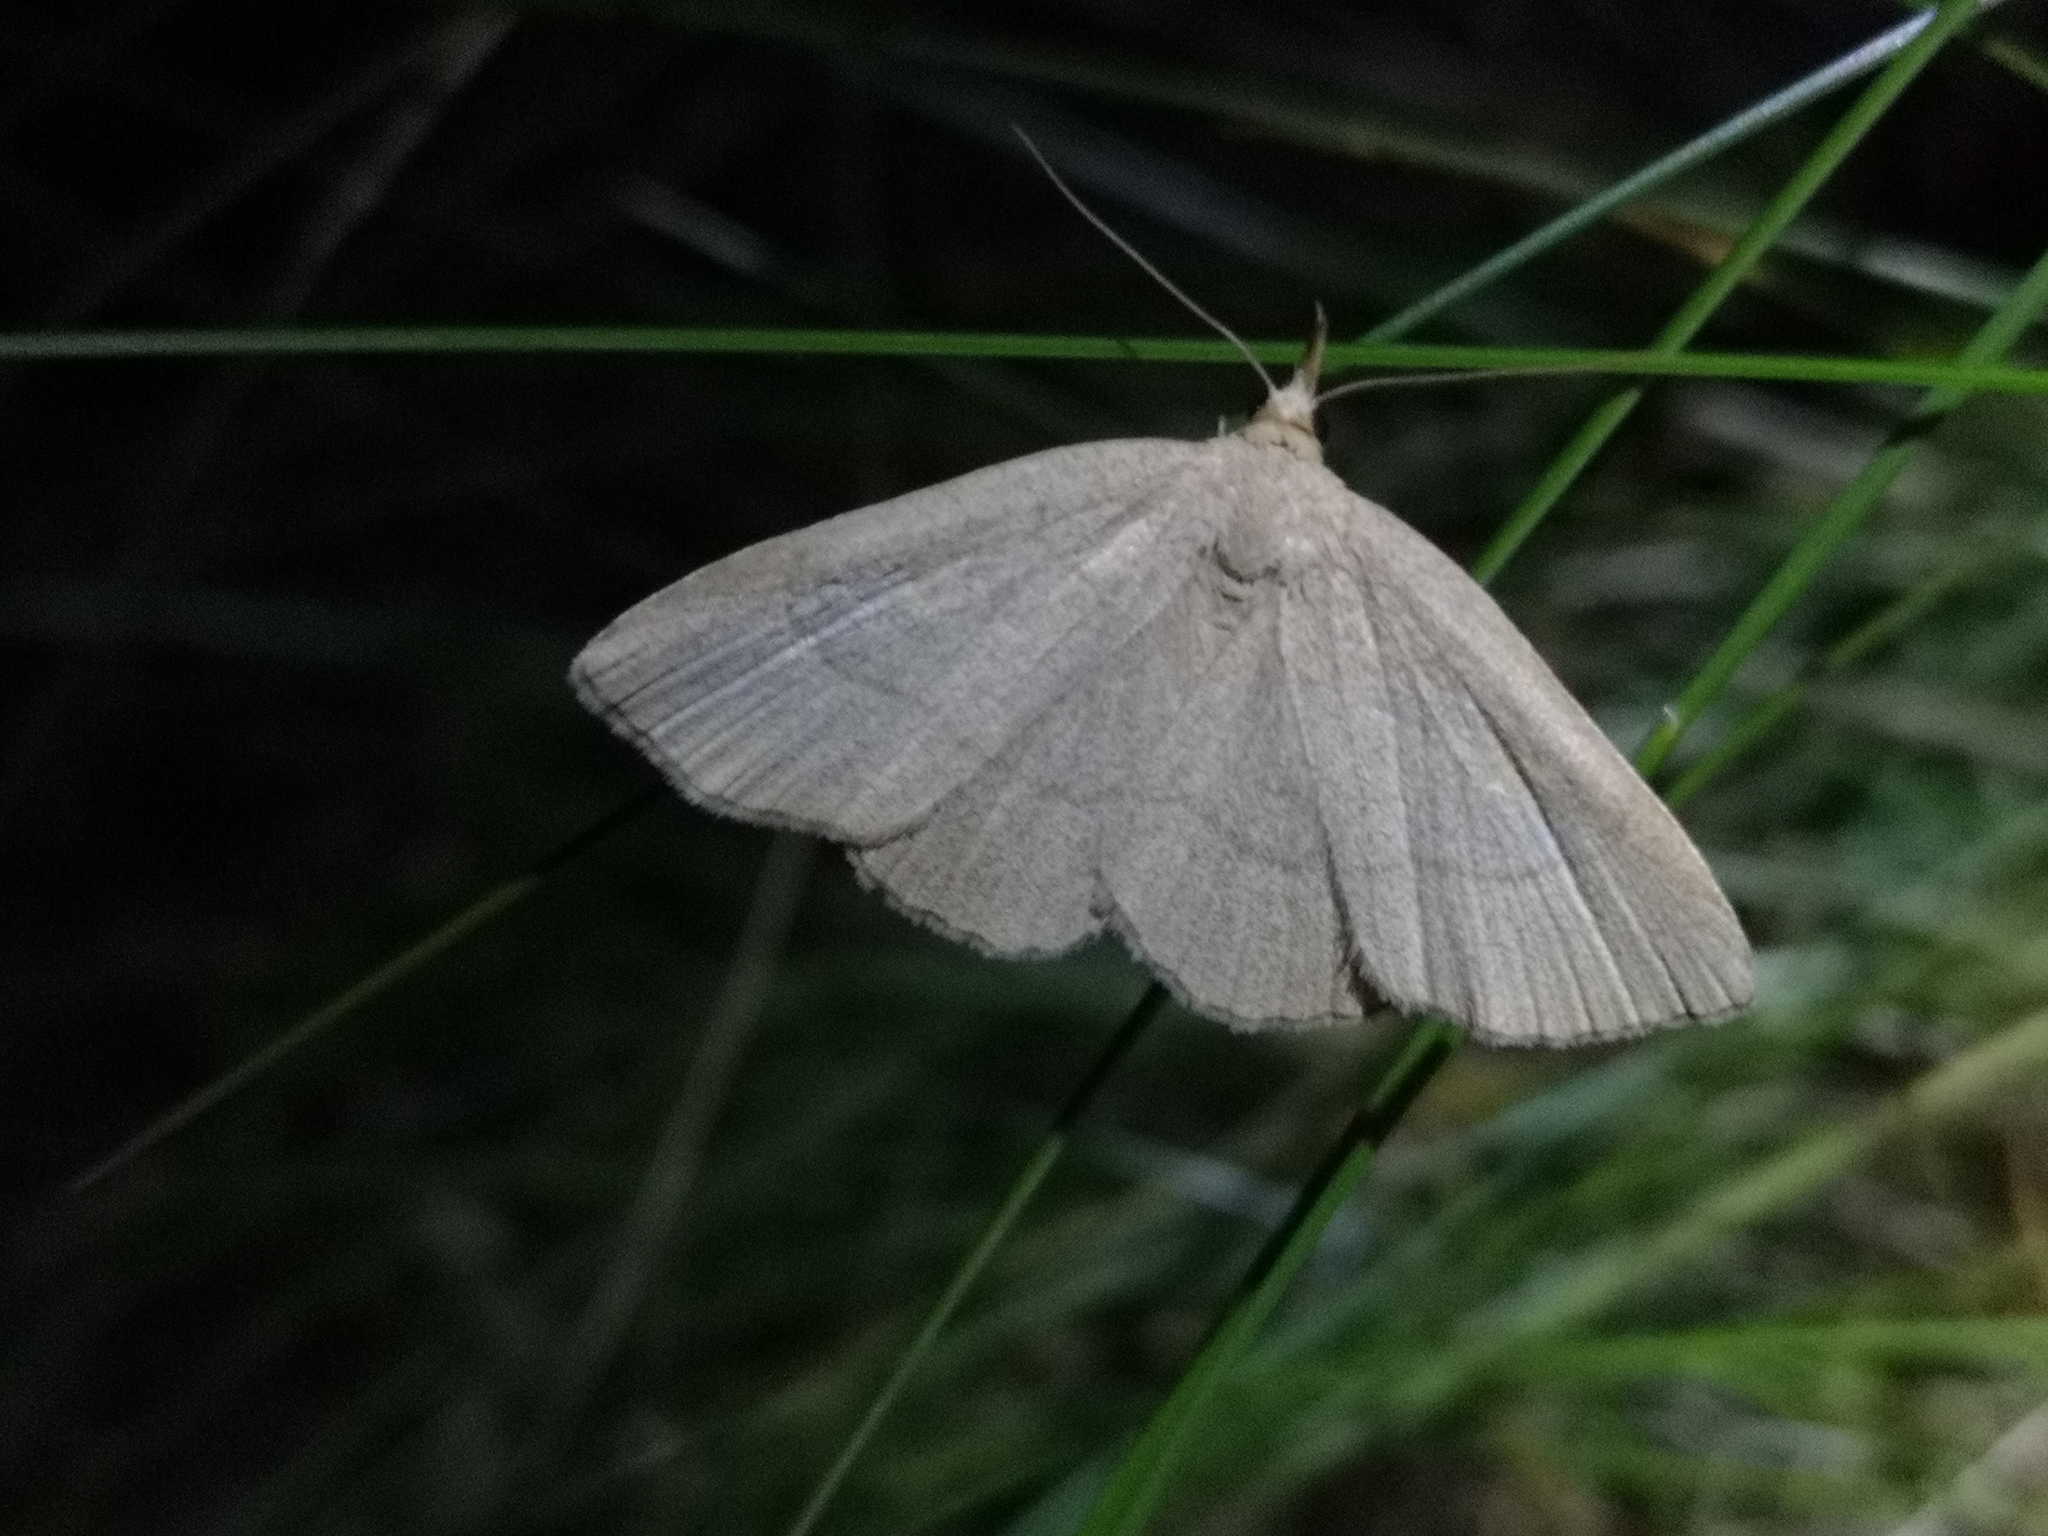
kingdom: Animalia
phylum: Arthropoda
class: Insecta
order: Lepidoptera
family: Erebidae
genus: Paracolax
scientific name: Paracolax tristalis
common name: Clay fan-foot
